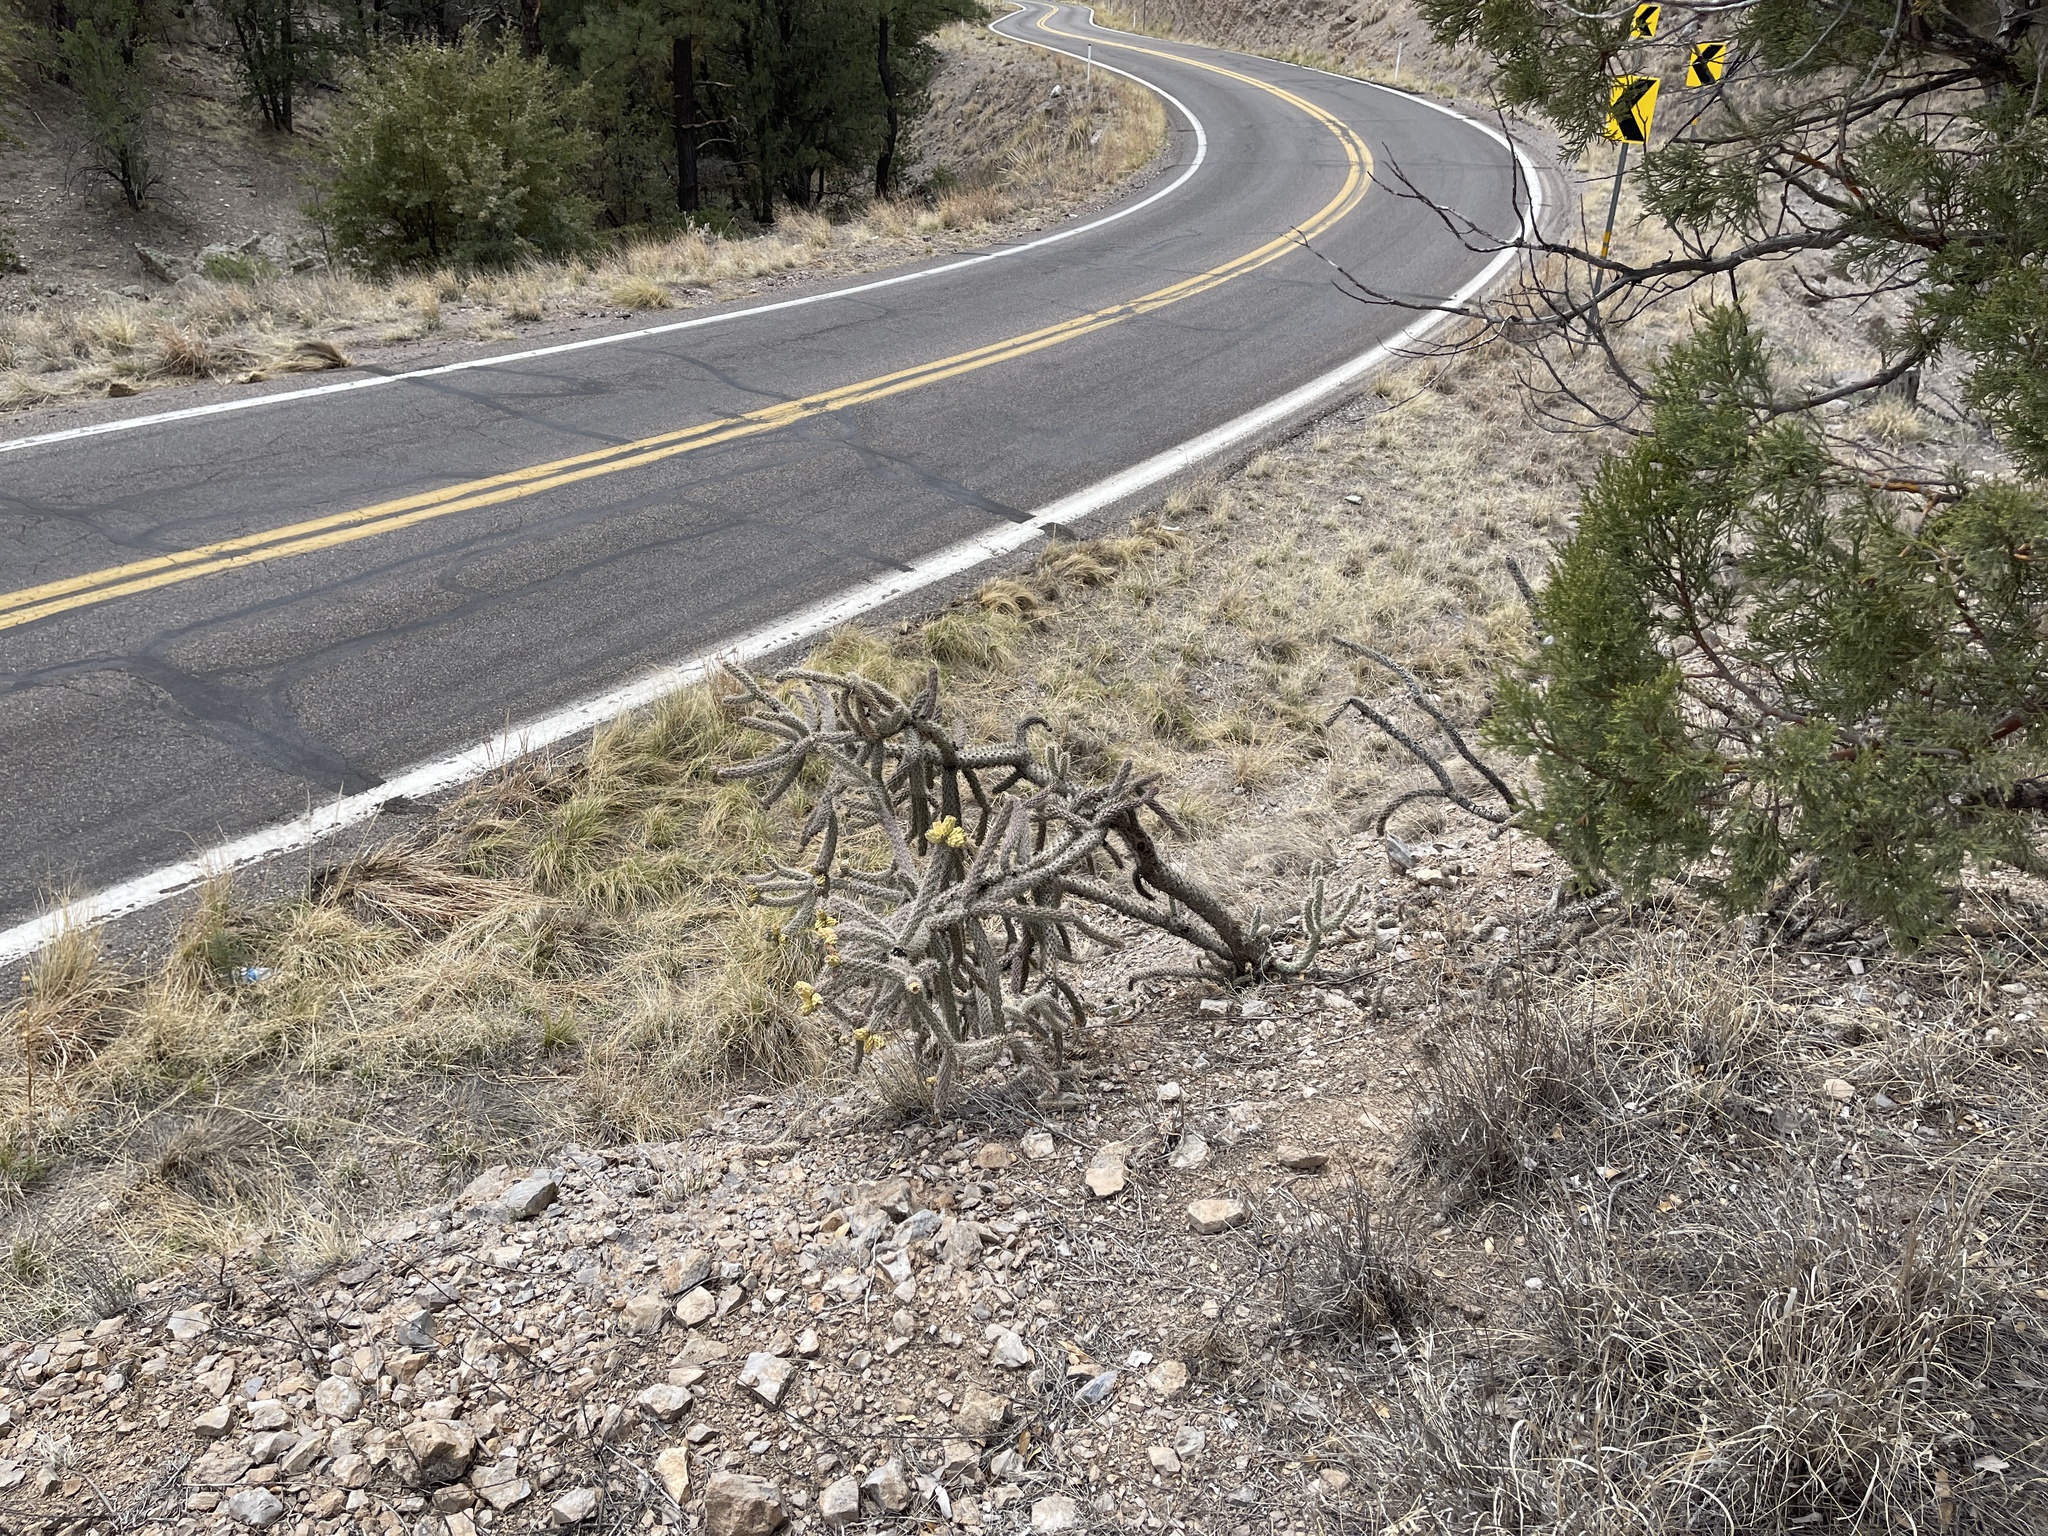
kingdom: Plantae
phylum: Tracheophyta
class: Magnoliopsida
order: Caryophyllales
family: Cactaceae
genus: Cylindropuntia
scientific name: Cylindropuntia imbricata
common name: Candelabrum cactus
